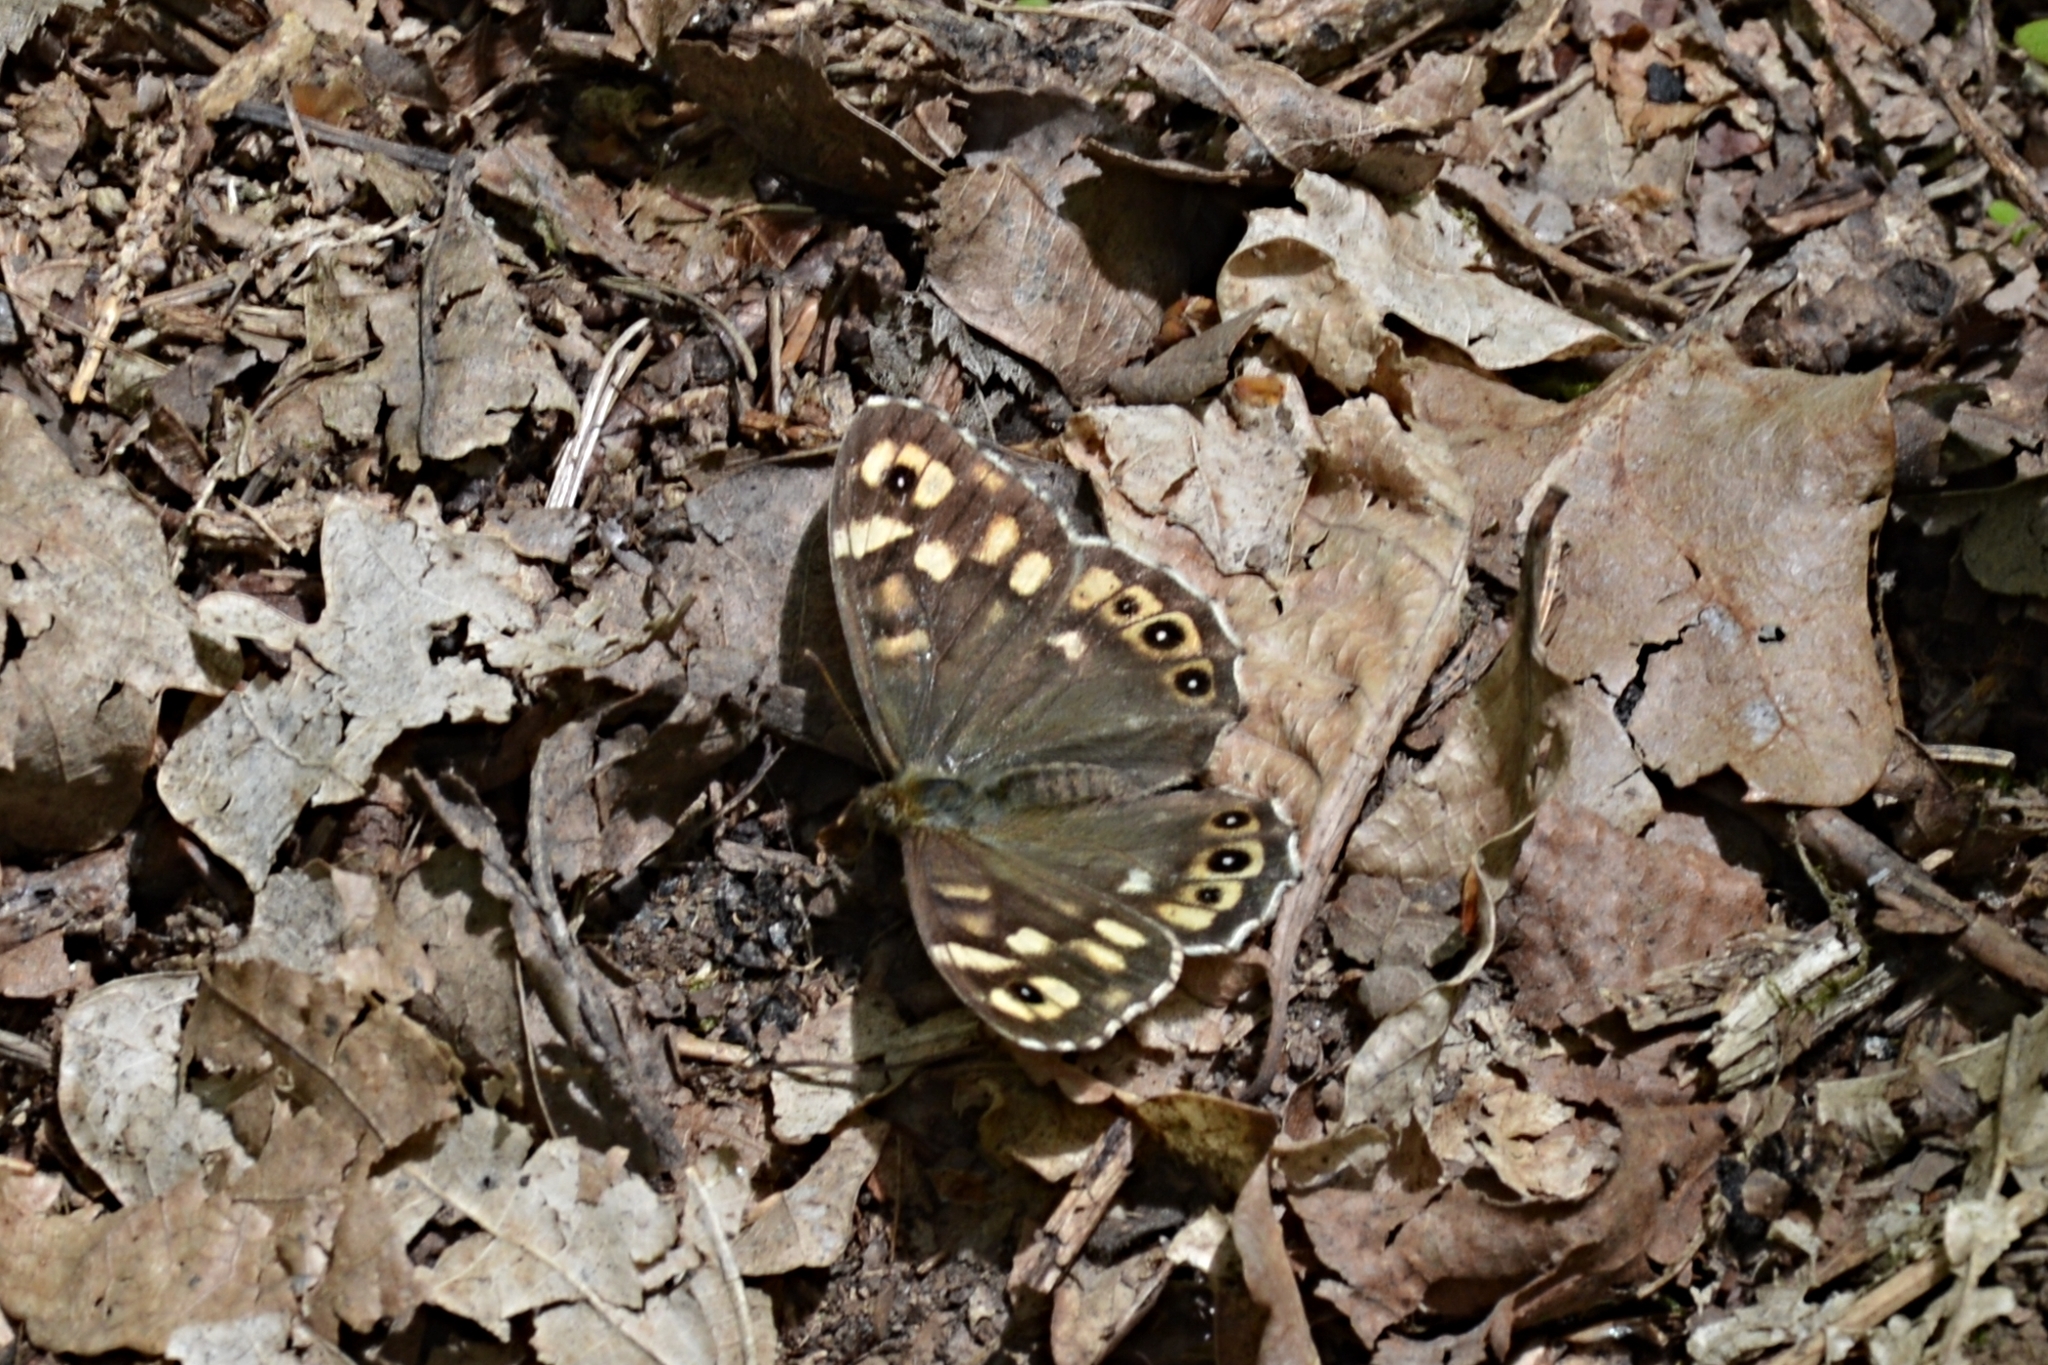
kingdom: Animalia
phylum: Arthropoda
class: Insecta
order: Lepidoptera
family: Nymphalidae
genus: Pararge
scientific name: Pararge aegeria
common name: Speckled wood
